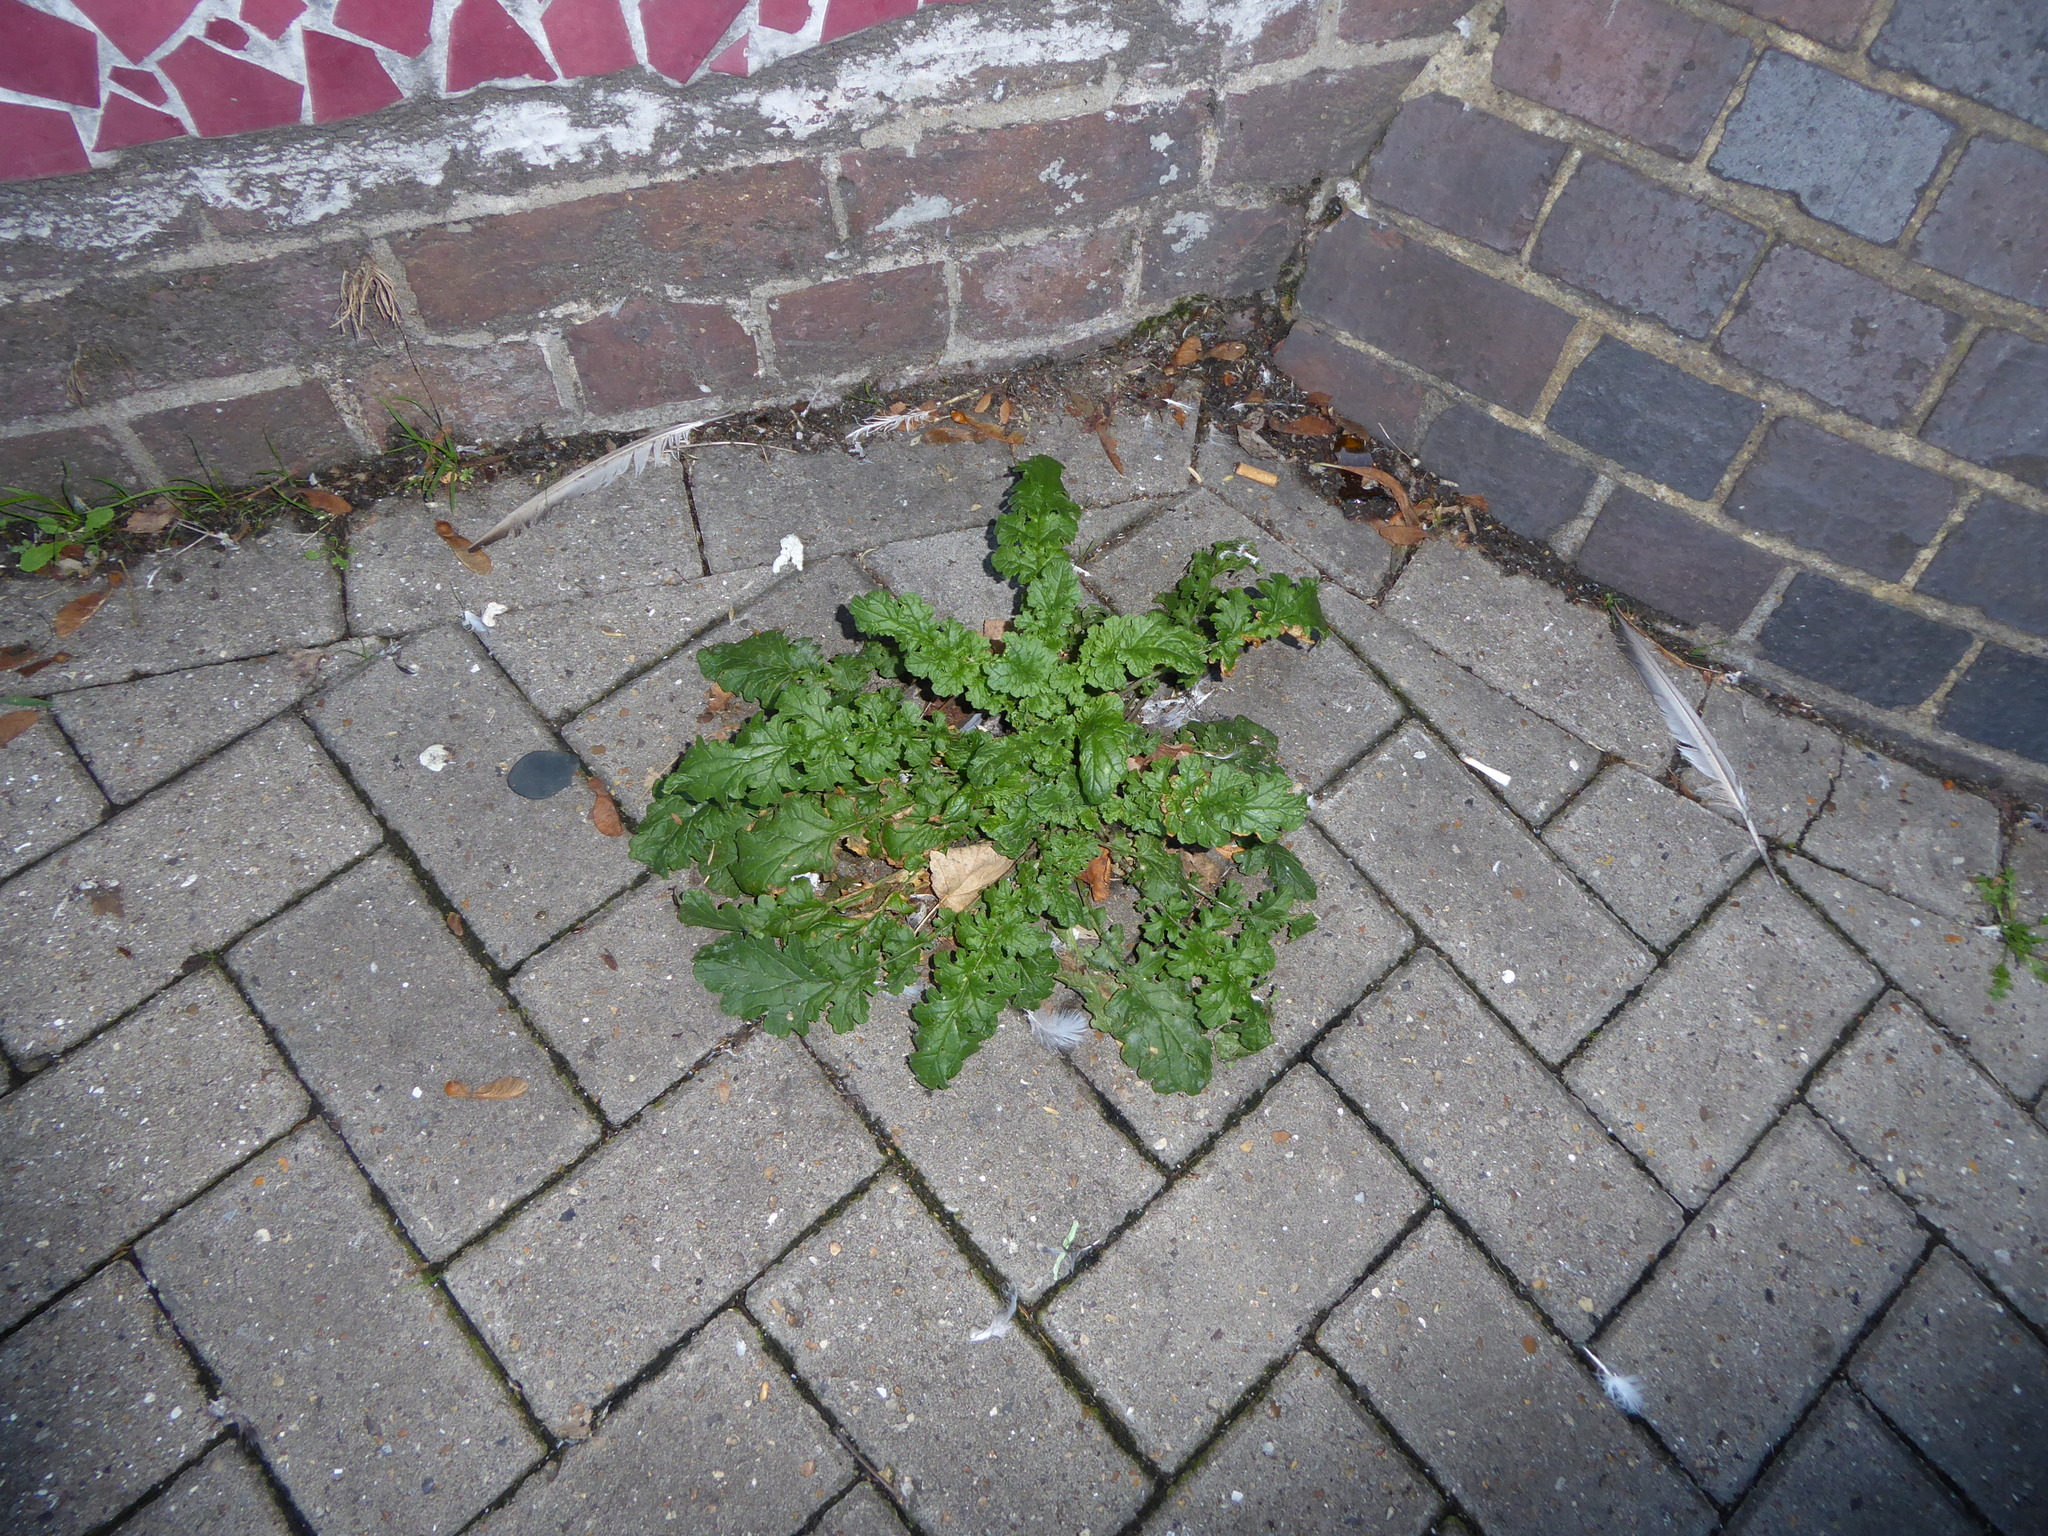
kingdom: Plantae
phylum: Tracheophyta
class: Magnoliopsida
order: Asterales
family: Asteraceae
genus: Jacobaea
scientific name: Jacobaea vulgaris
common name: Stinking willie
